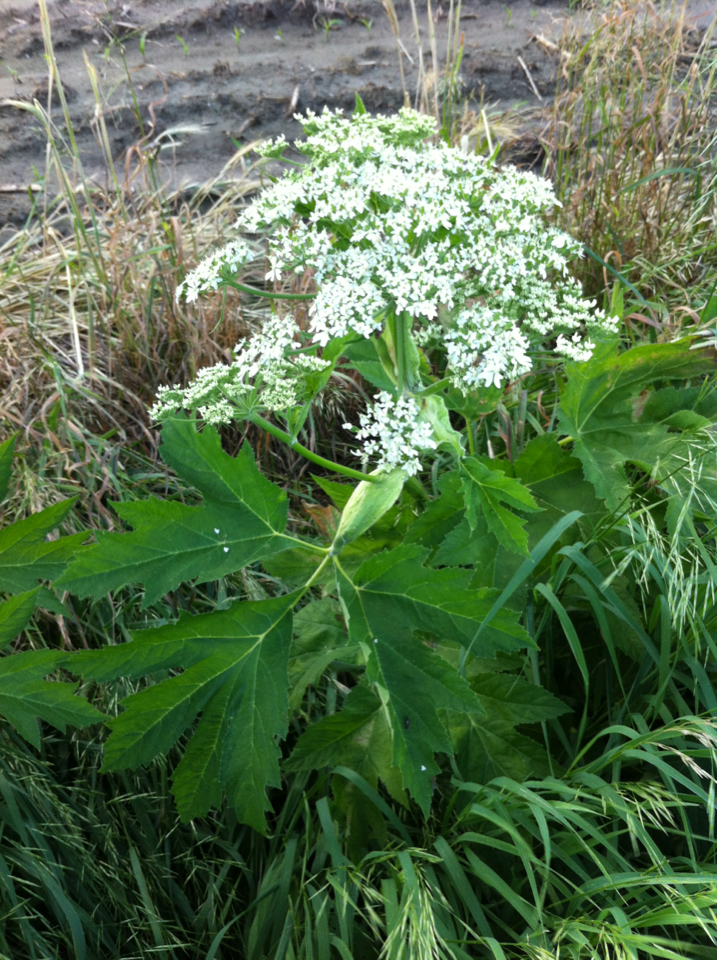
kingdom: Plantae
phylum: Tracheophyta
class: Magnoliopsida
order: Apiales
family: Apiaceae
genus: Heracleum
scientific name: Heracleum maximum
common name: American cow parsnip
